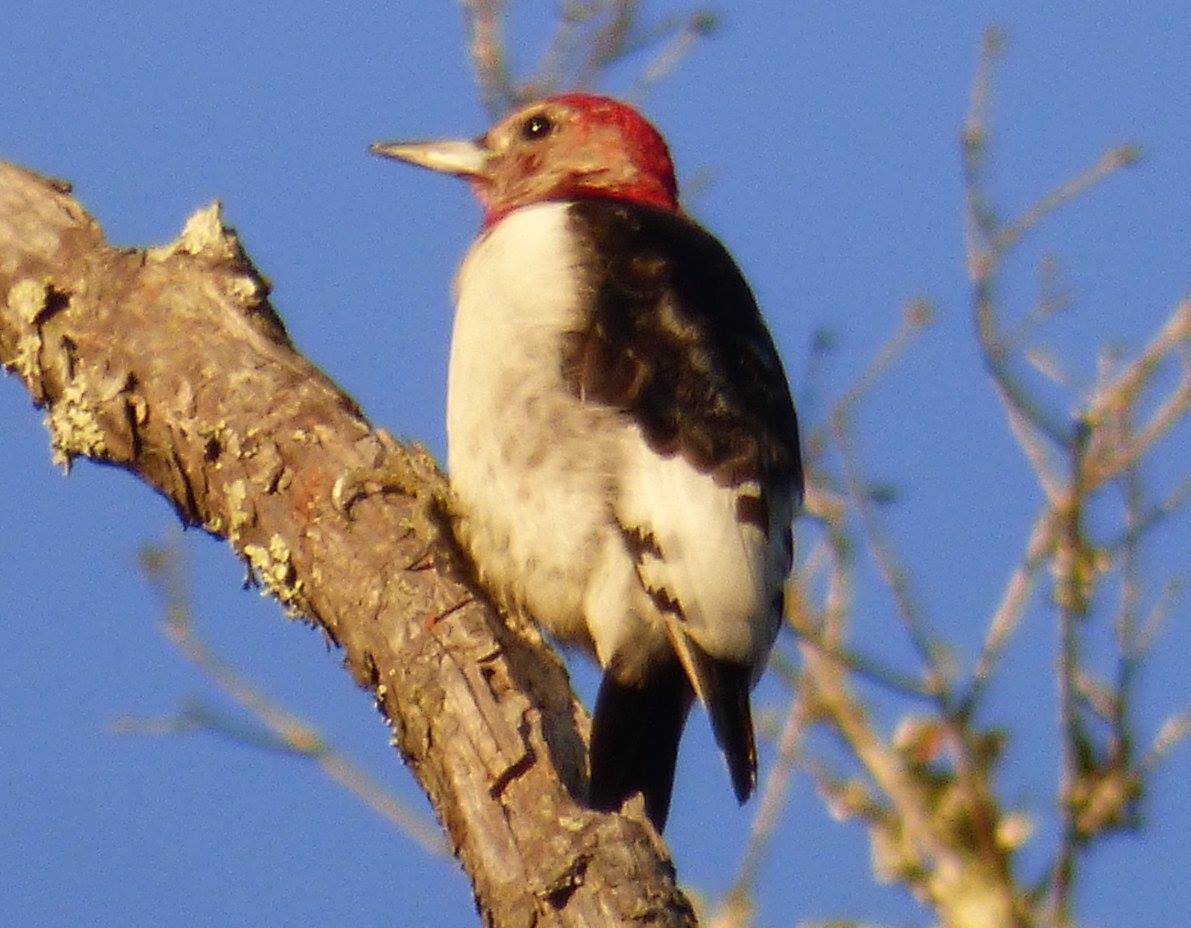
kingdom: Animalia
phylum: Chordata
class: Aves
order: Piciformes
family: Picidae
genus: Melanerpes
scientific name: Melanerpes erythrocephalus
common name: Red-headed woodpecker
